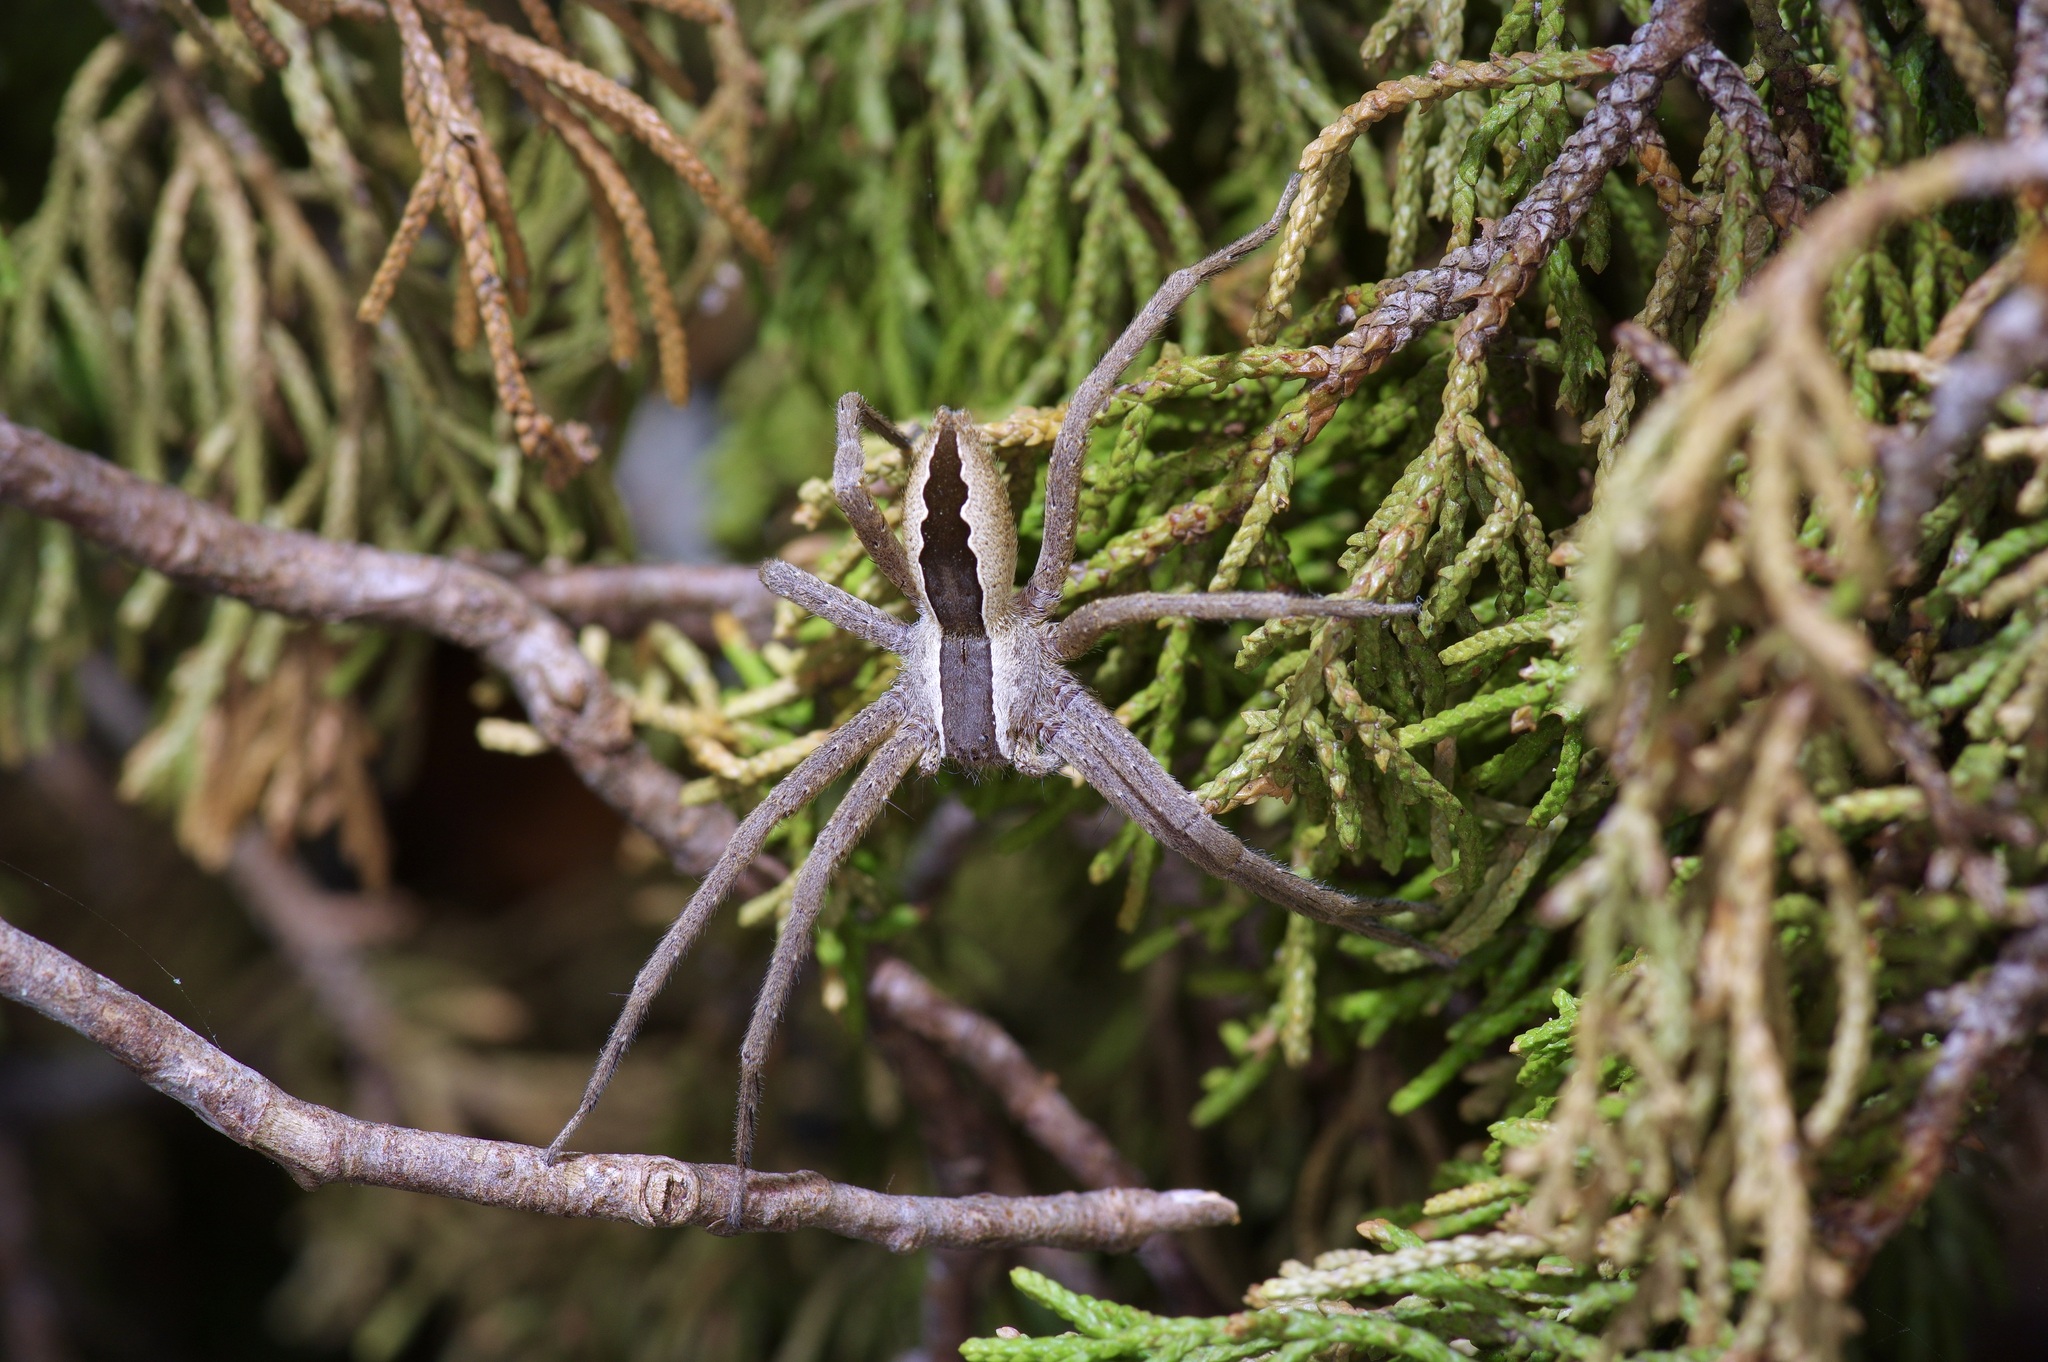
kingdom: Animalia
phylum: Arthropoda
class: Arachnida
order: Araneae
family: Pisauridae
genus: Pisaurina
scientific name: Pisaurina mira
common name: American nursery web spider
